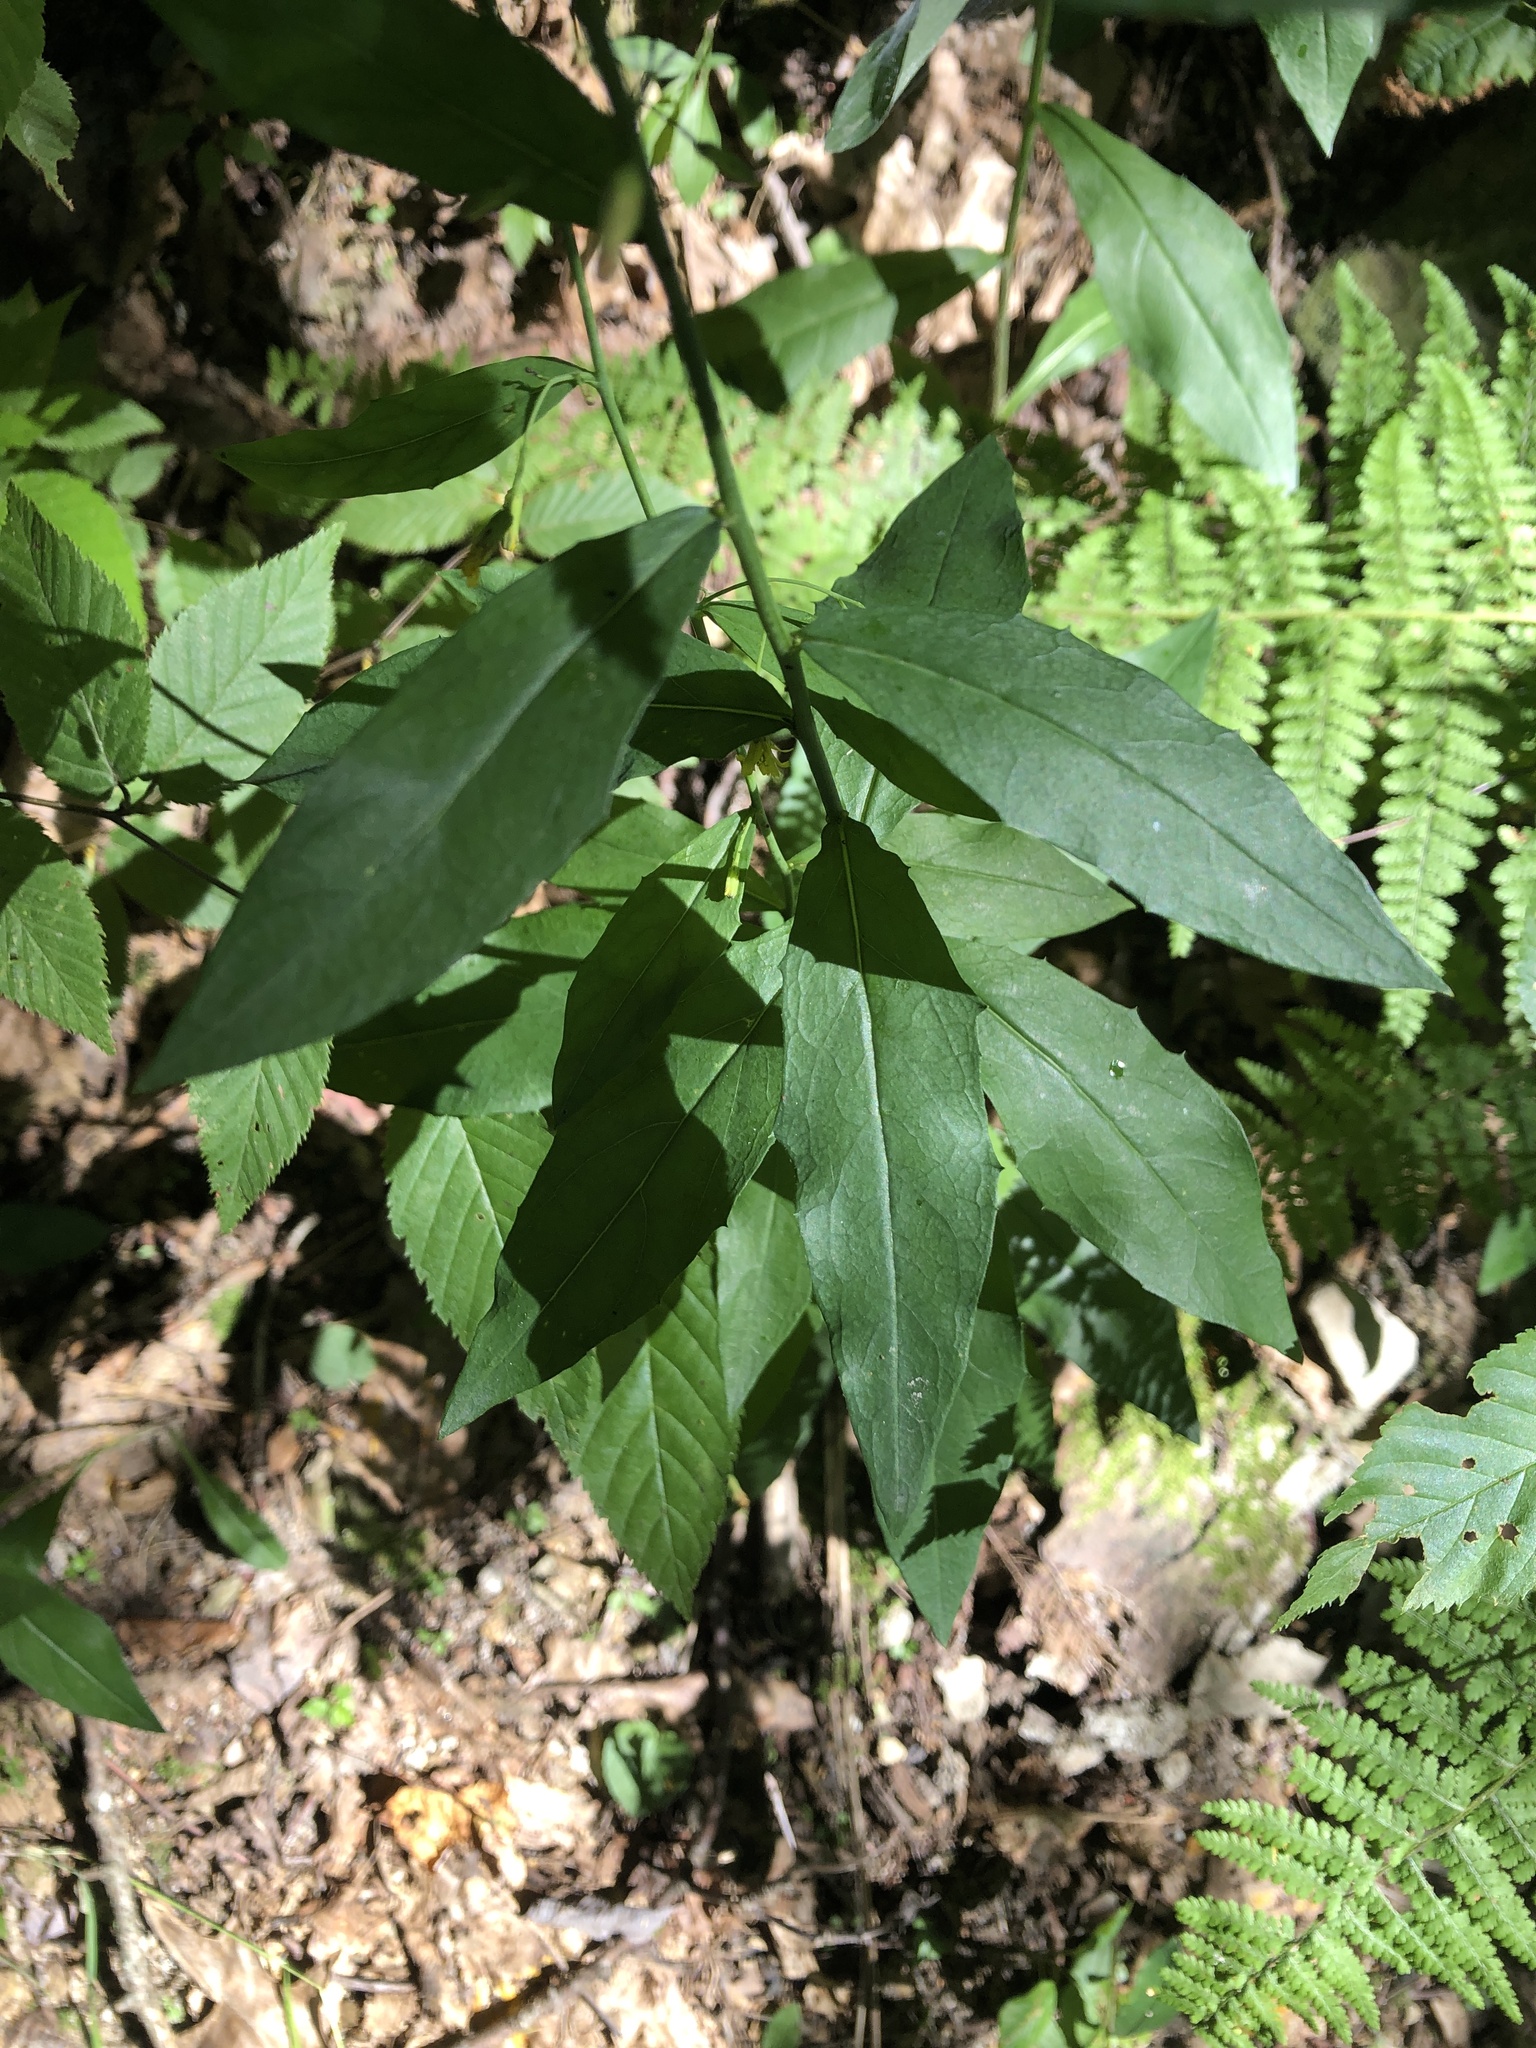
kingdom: Plantae
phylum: Tracheophyta
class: Magnoliopsida
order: Asterales
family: Asteraceae
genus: Hieracium
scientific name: Hieracium paniculatum
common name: Allegheny hawkweed
